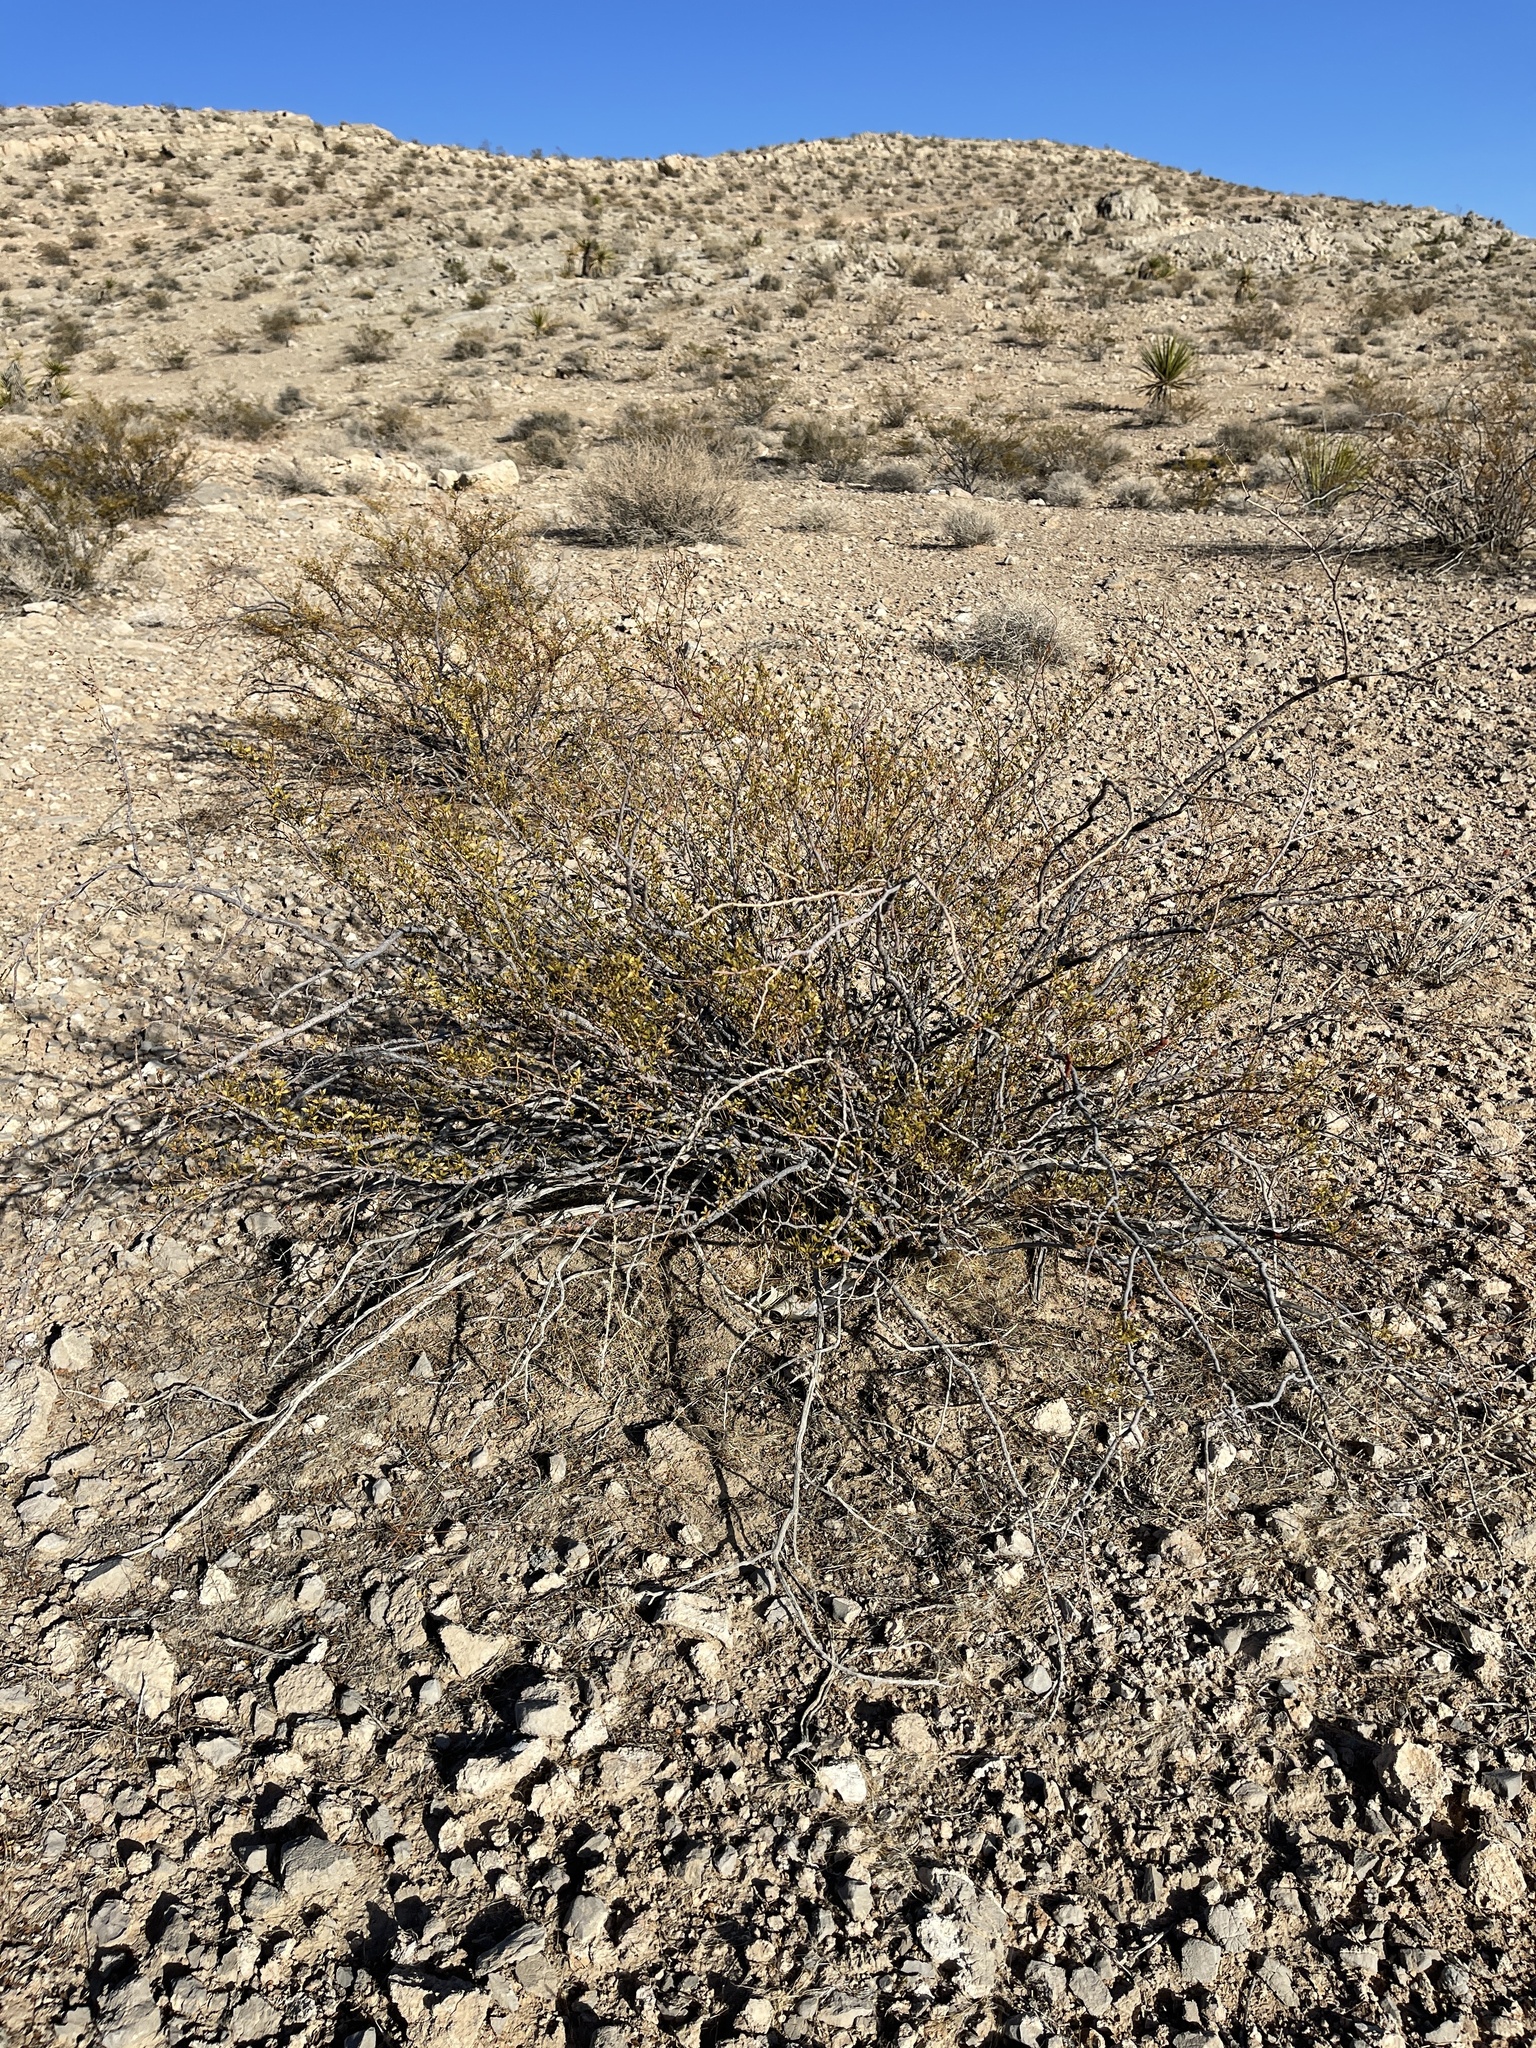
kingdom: Plantae
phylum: Tracheophyta
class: Magnoliopsida
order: Zygophyllales
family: Zygophyllaceae
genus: Larrea
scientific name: Larrea tridentata
